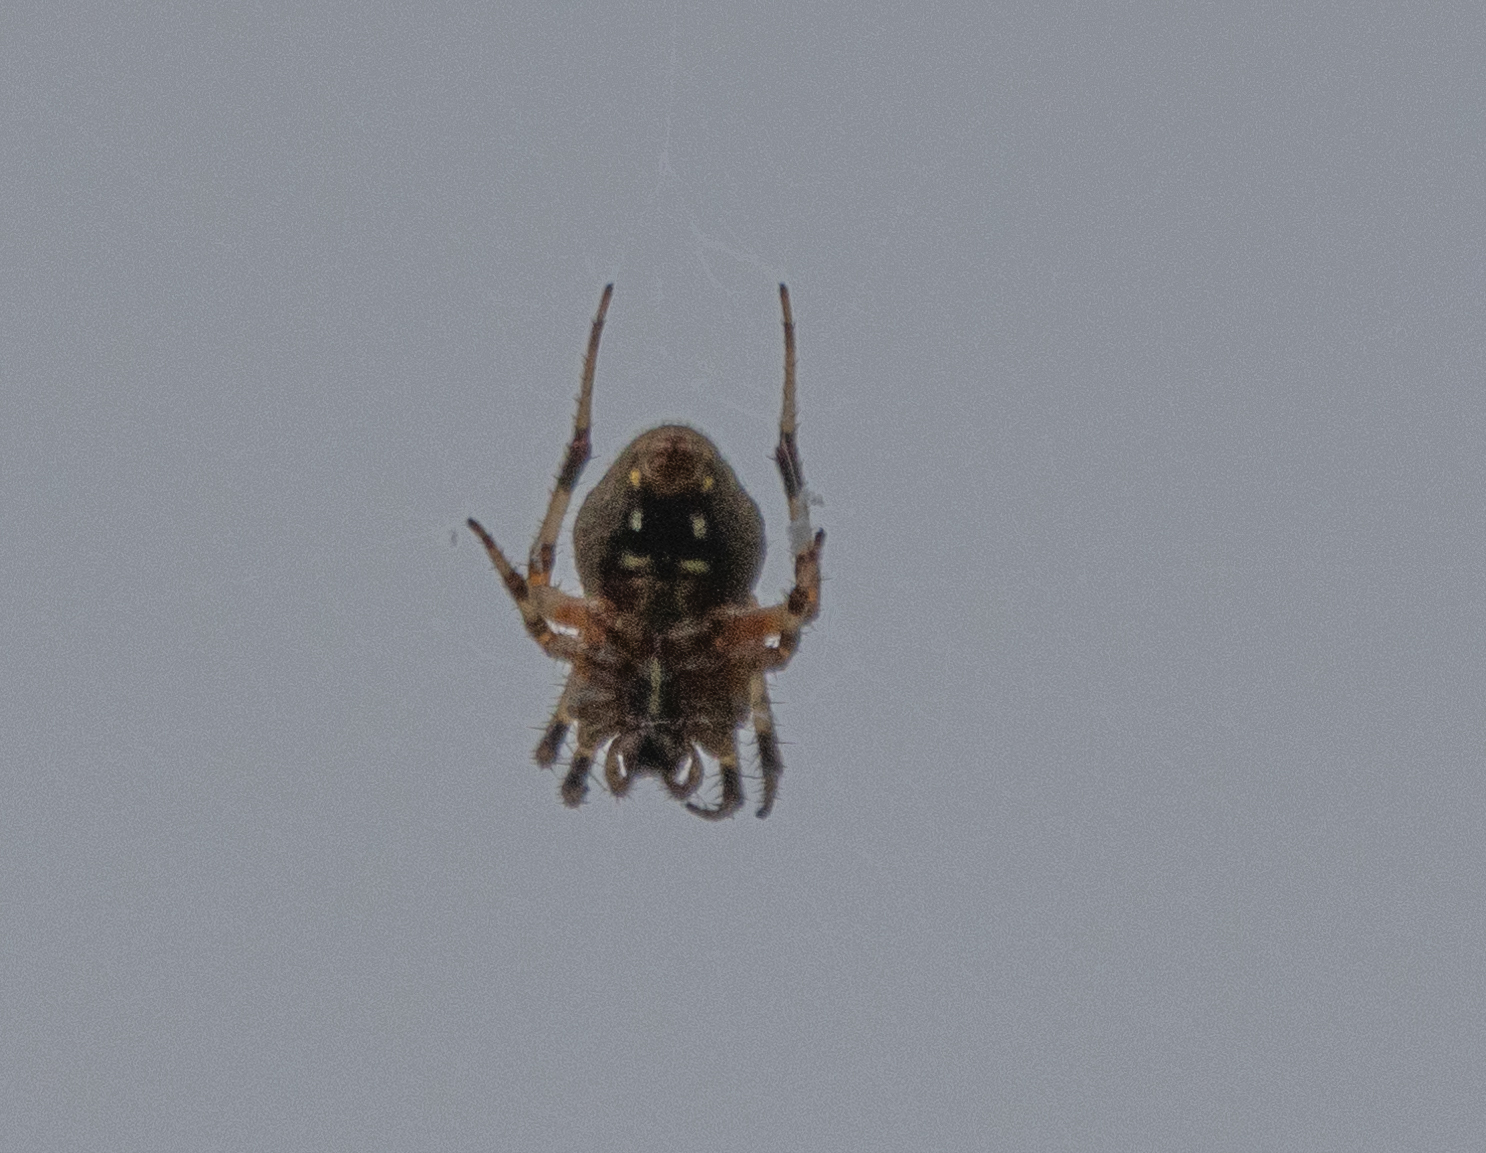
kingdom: Animalia
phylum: Arthropoda
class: Arachnida
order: Araneae
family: Araneidae
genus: Neoscona
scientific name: Neoscona crucifera
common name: Spotted orbweaver
